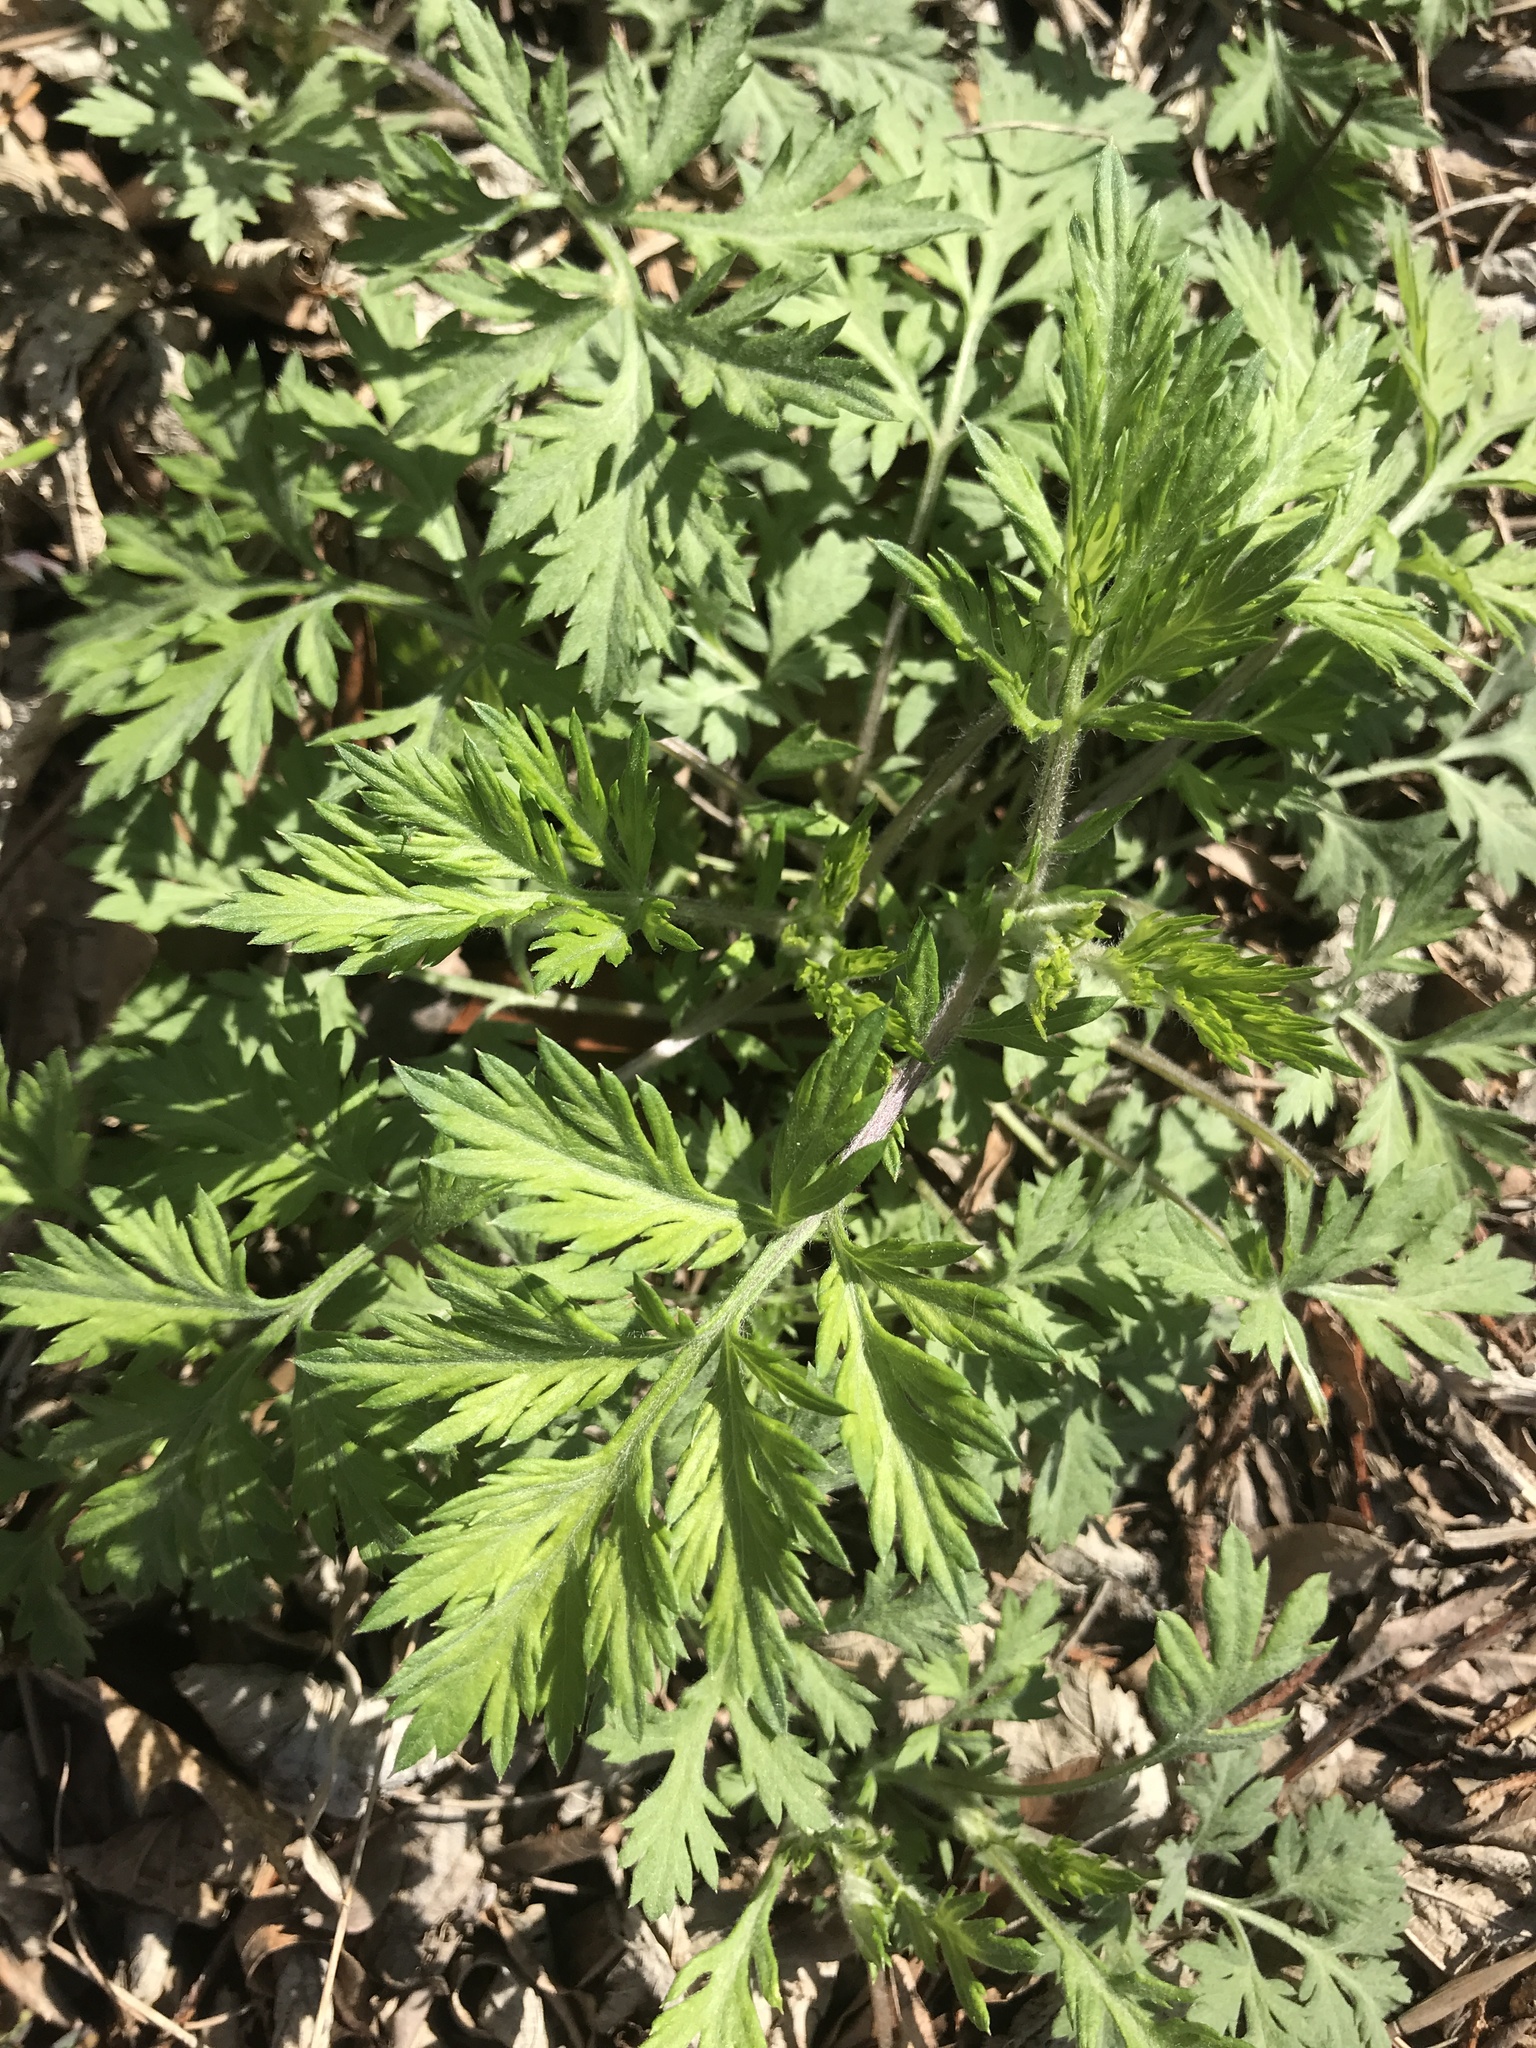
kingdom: Plantae
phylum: Tracheophyta
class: Magnoliopsida
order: Asterales
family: Asteraceae
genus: Artemisia
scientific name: Artemisia vulgaris
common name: Mugwort
